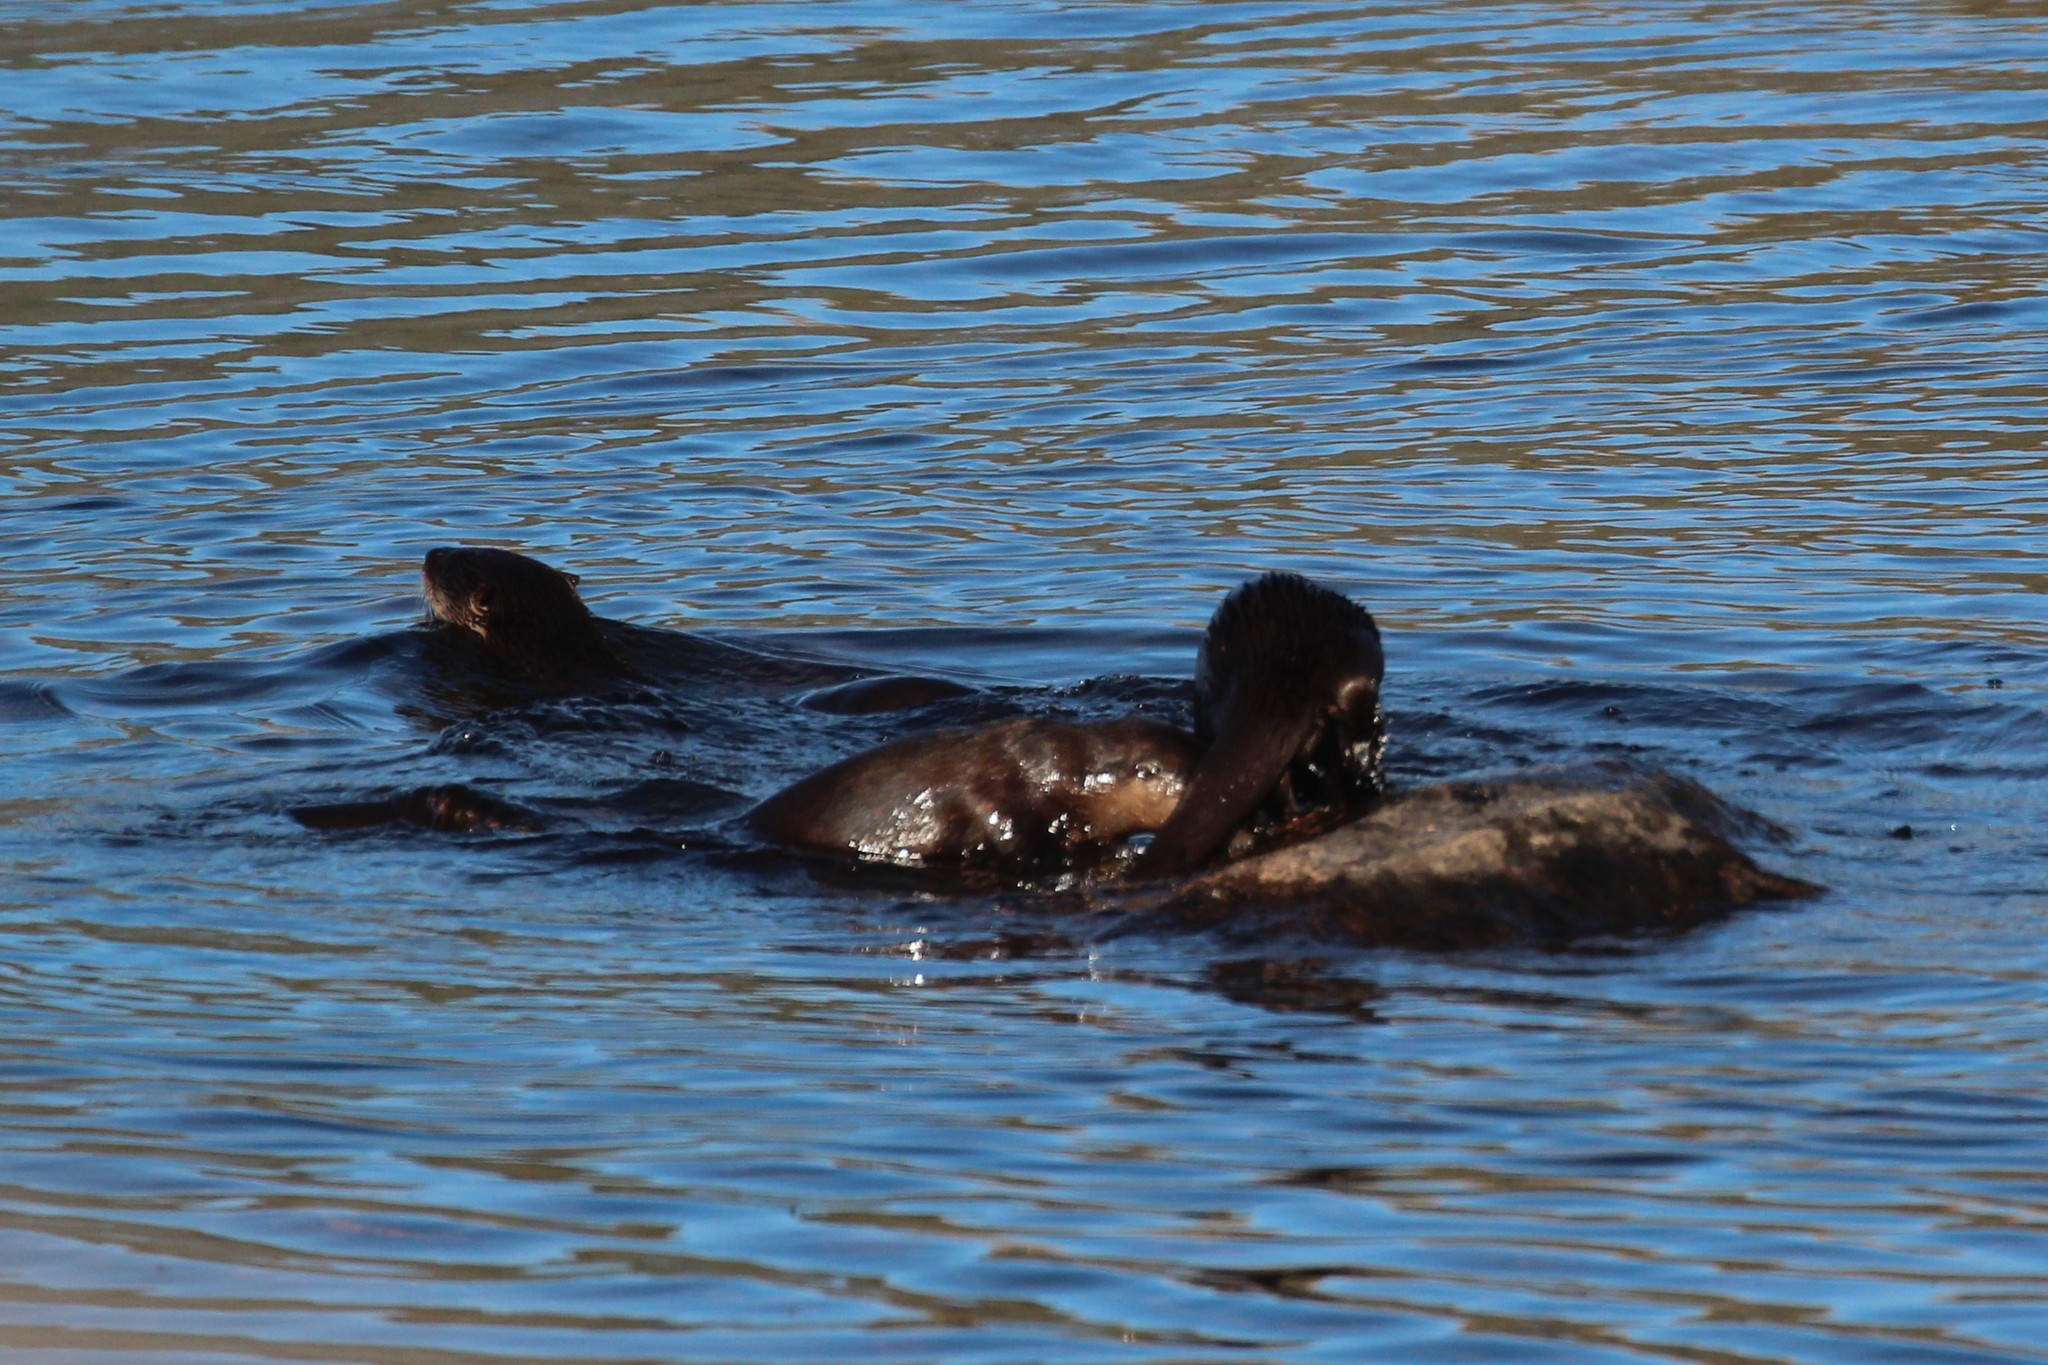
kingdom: Animalia
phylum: Chordata
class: Mammalia
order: Carnivora
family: Mustelidae
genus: Lontra
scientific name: Lontra canadensis
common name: North american river otter
